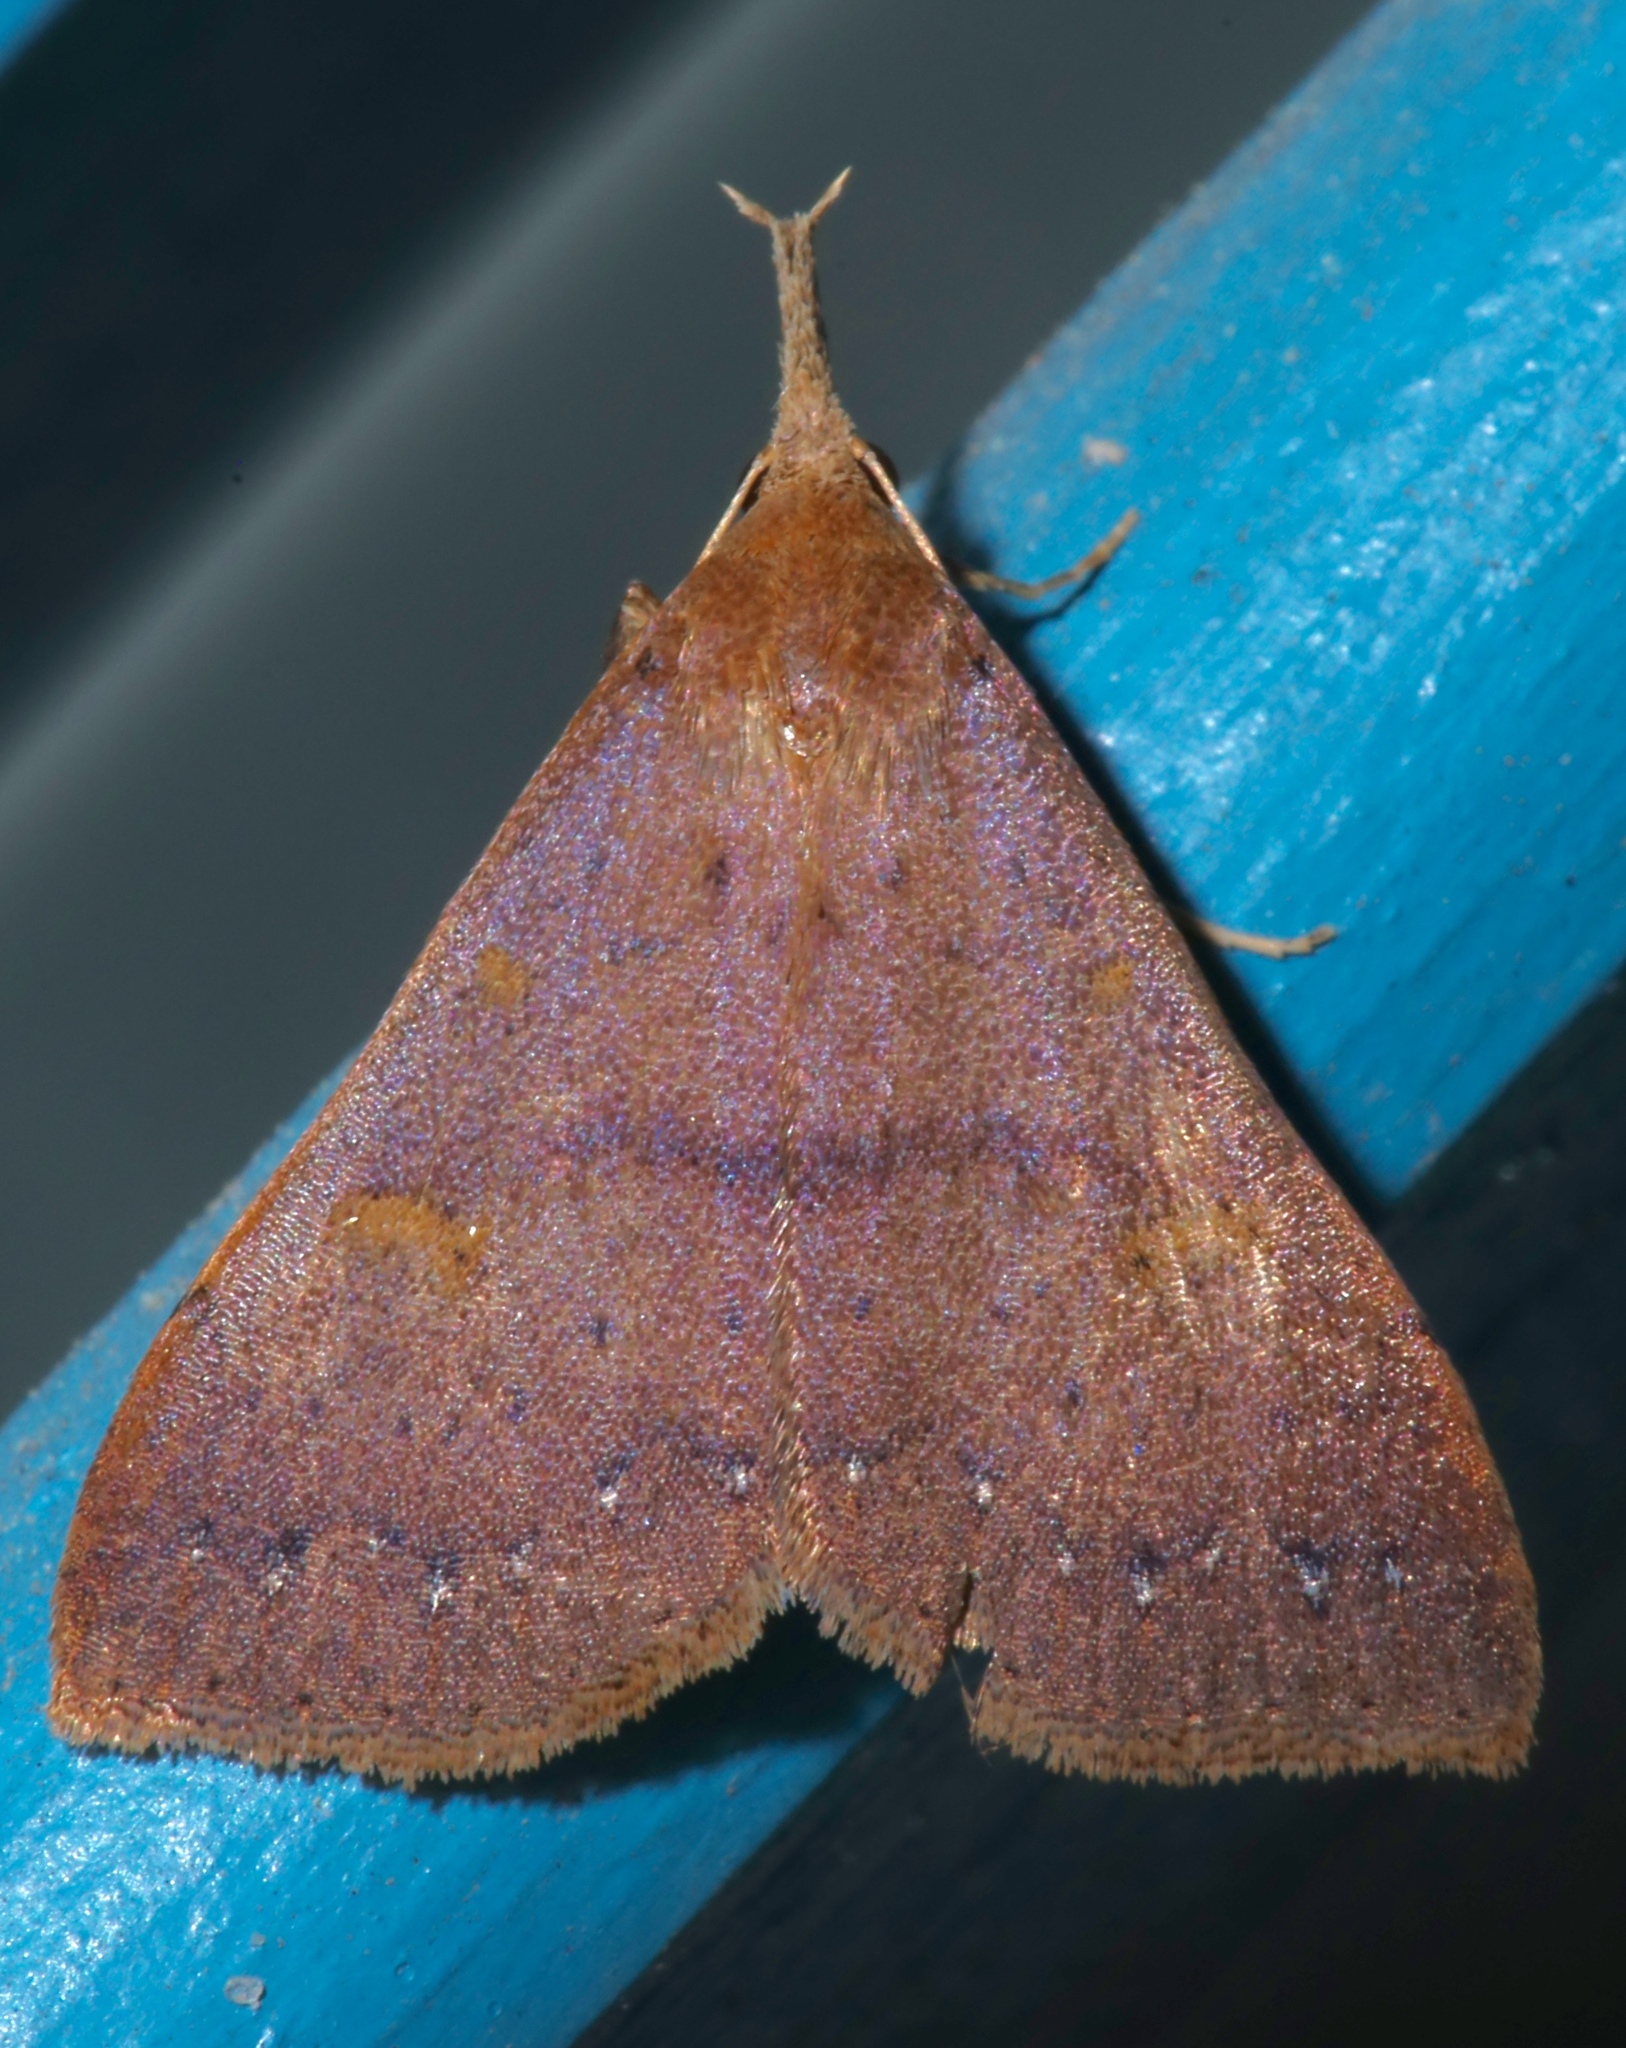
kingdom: Animalia
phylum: Arthropoda
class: Insecta
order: Lepidoptera
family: Erebidae
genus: Renia
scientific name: Renia fraternalis
